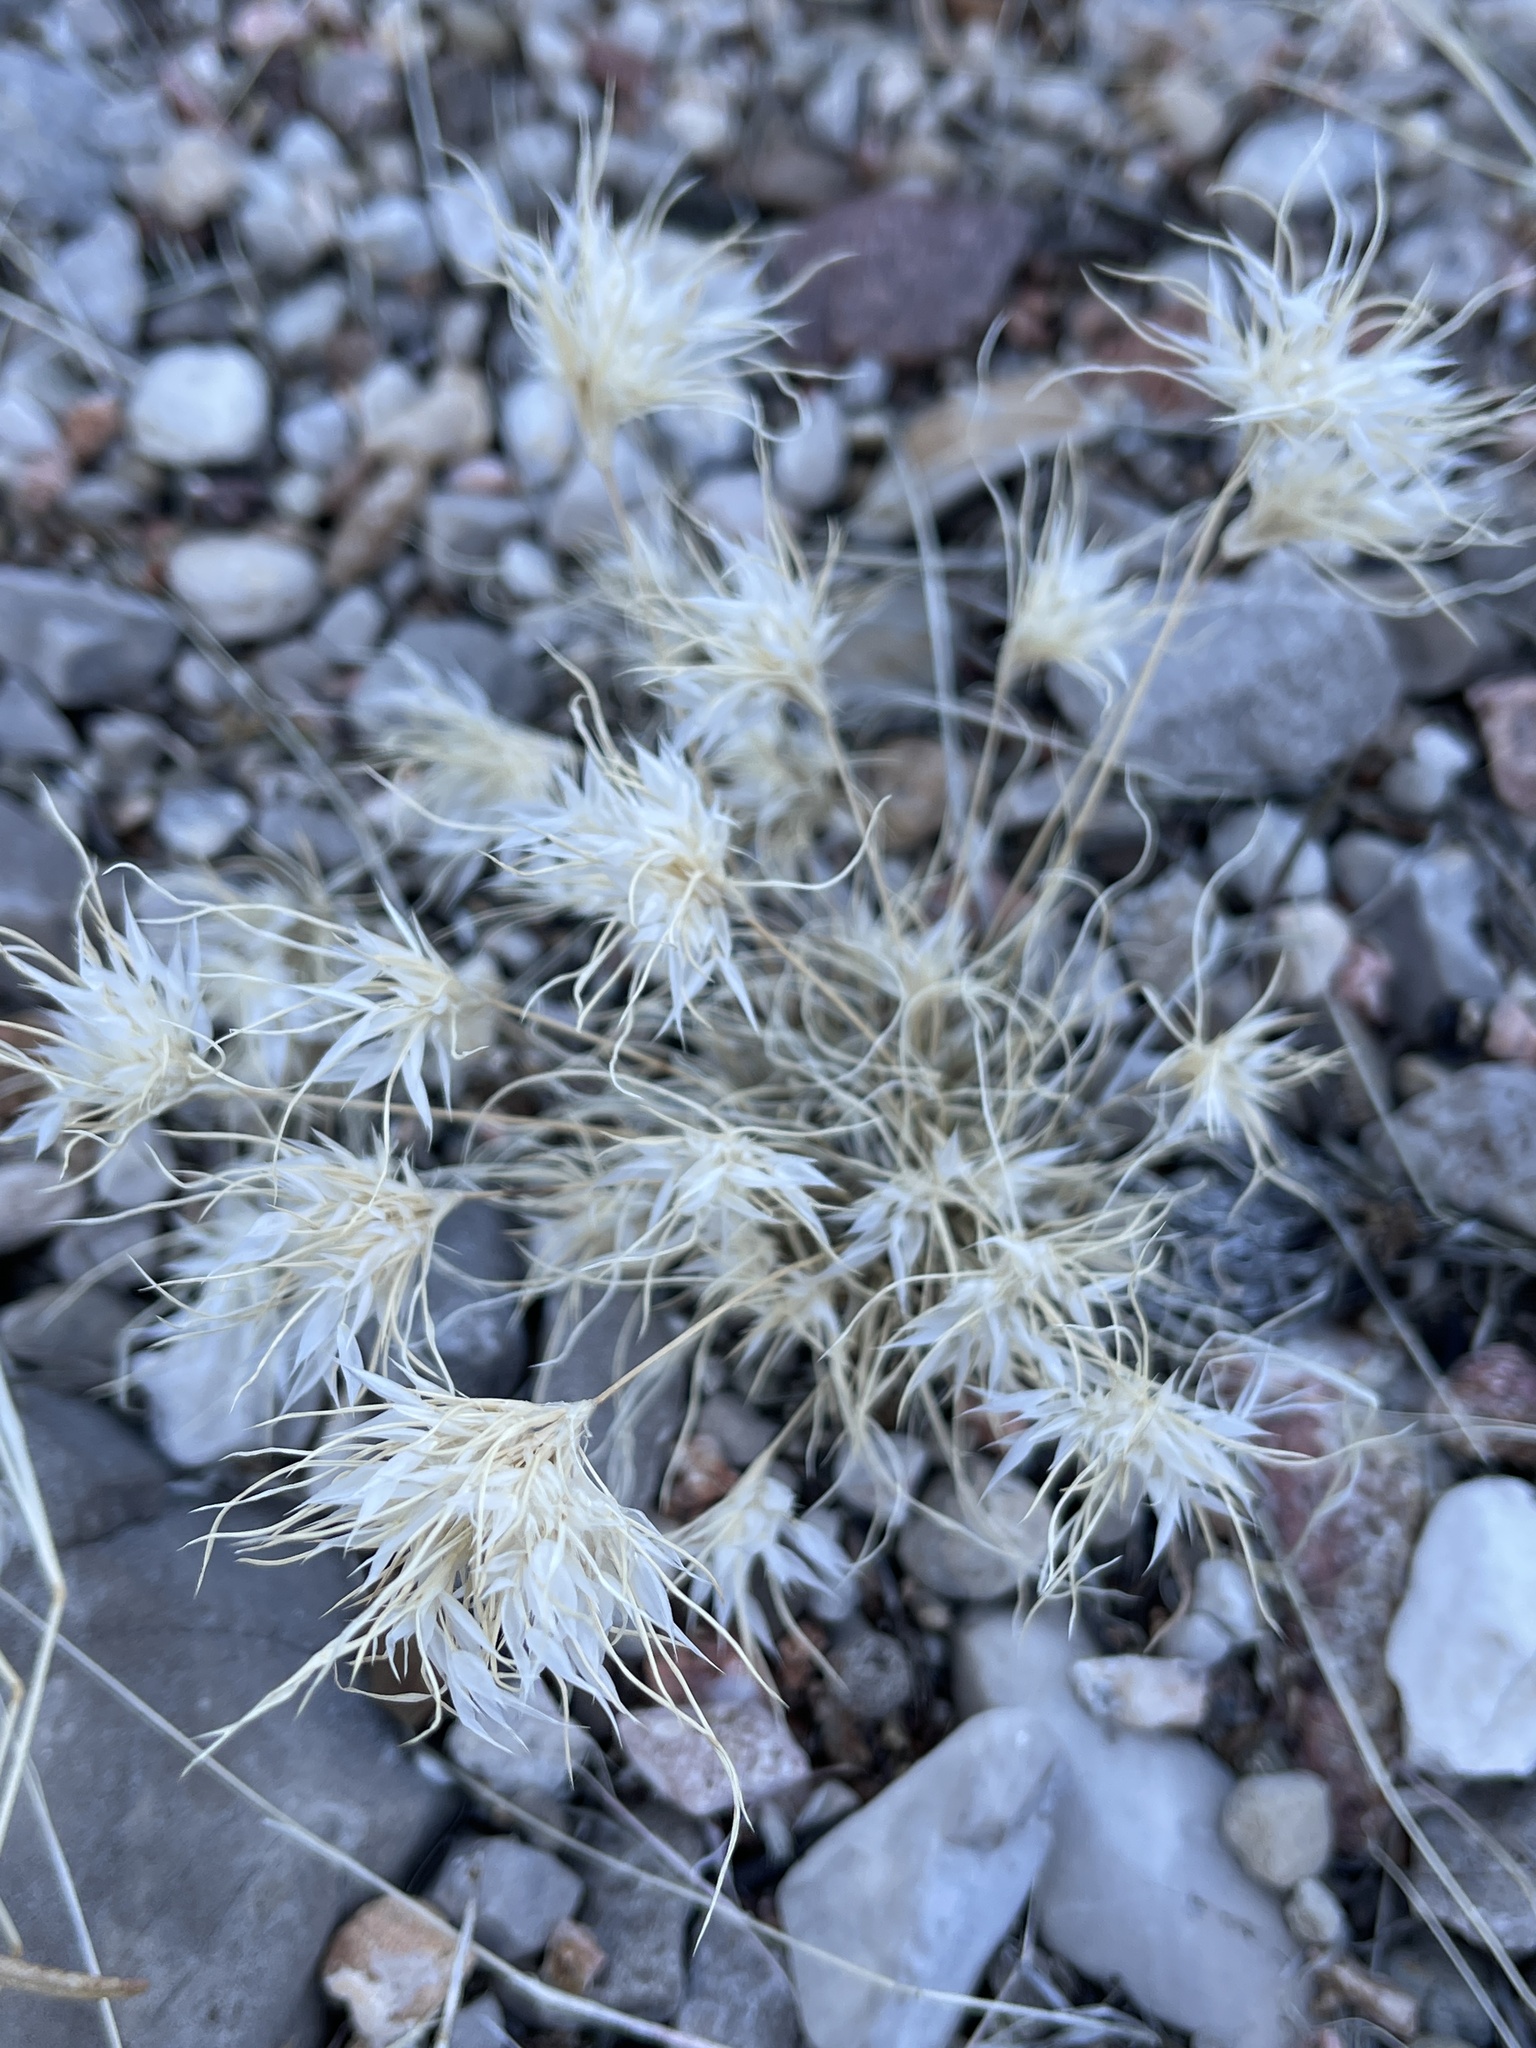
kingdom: Plantae
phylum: Tracheophyta
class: Liliopsida
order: Poales
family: Poaceae
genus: Dasyochloa
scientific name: Dasyochloa pulchella
